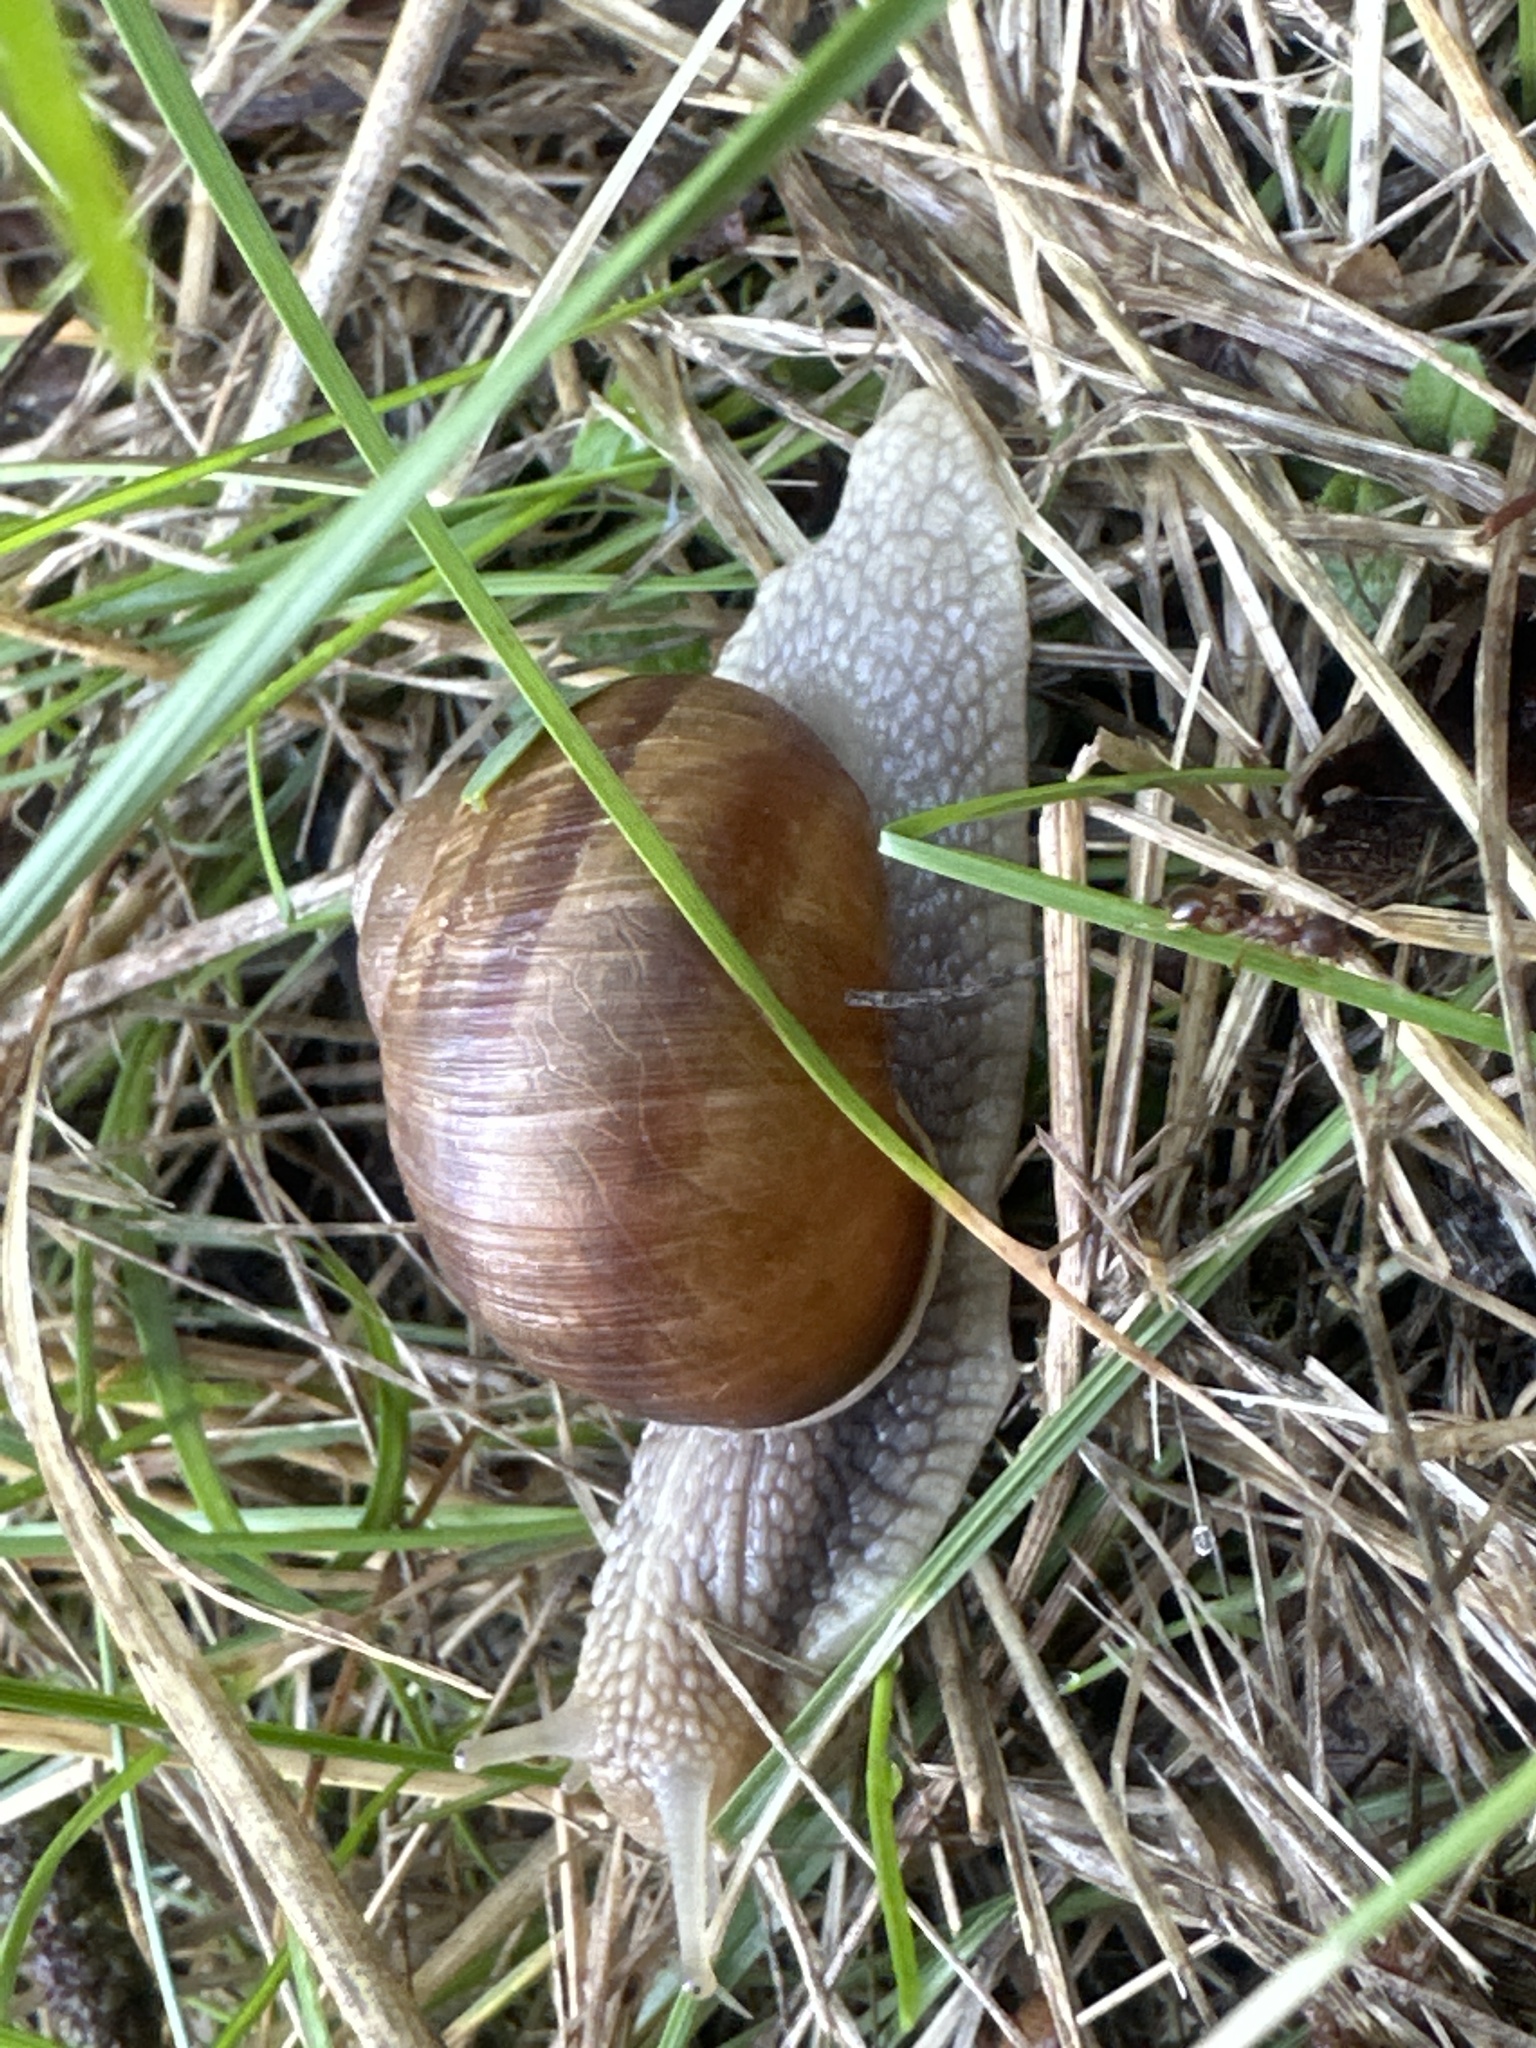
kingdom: Animalia
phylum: Mollusca
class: Gastropoda
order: Stylommatophora
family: Helicidae
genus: Helix
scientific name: Helix pomatia
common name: Roman snail
